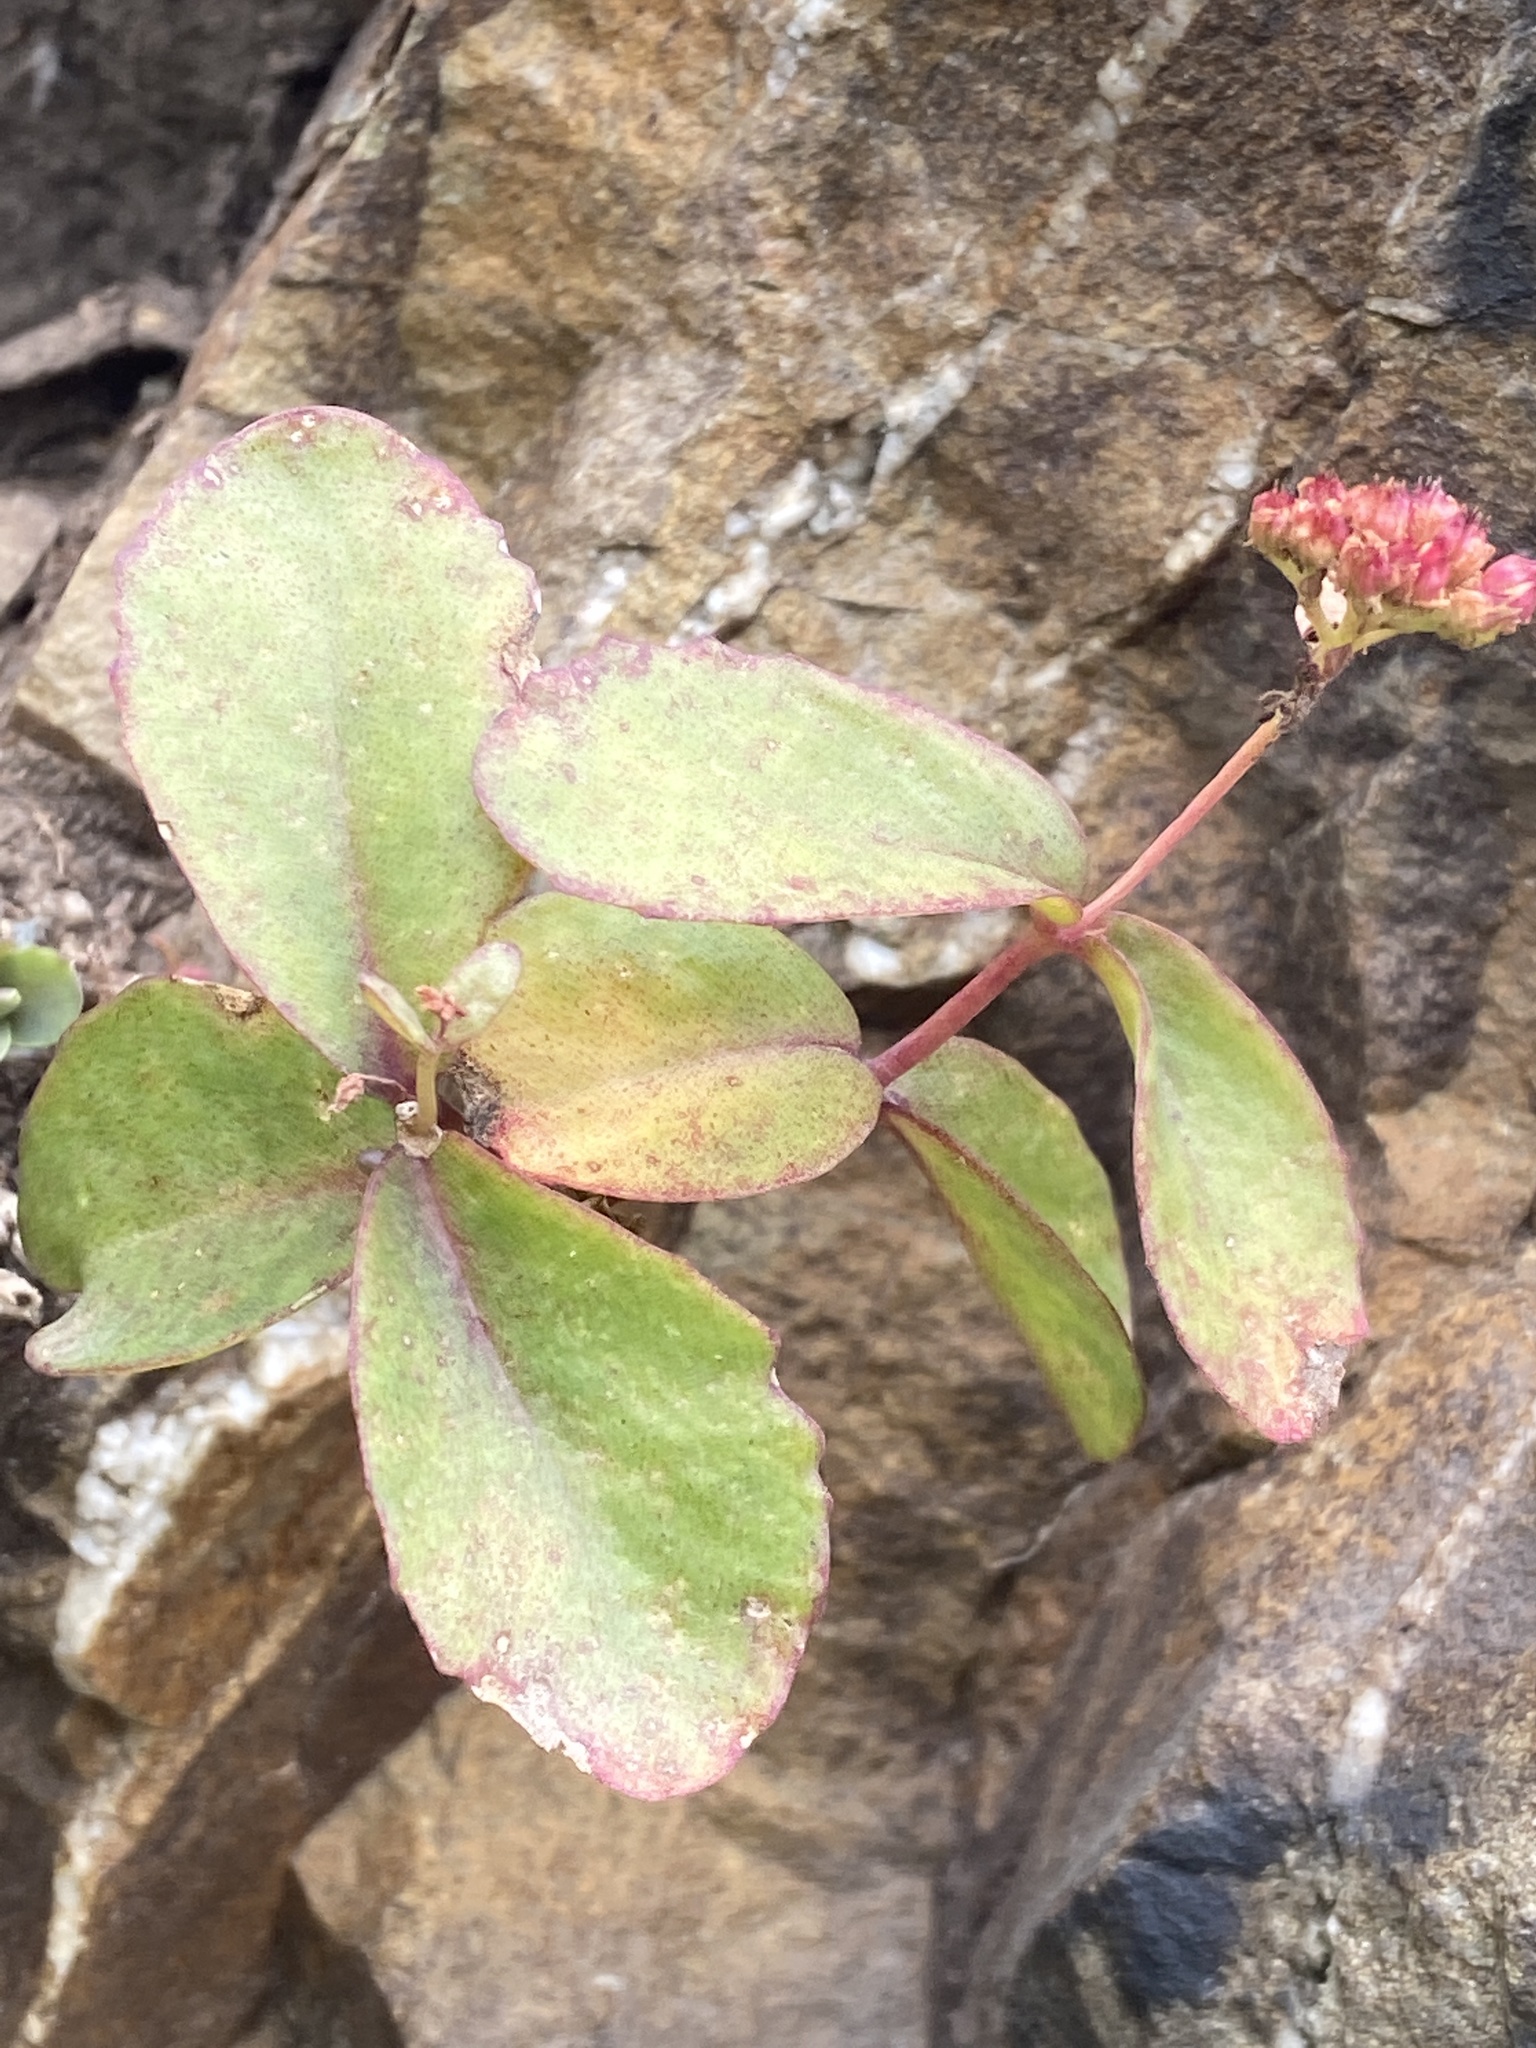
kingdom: Plantae
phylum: Tracheophyta
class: Magnoliopsida
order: Saxifragales
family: Crassulaceae
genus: Hylotelephium
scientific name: Hylotelephium maximum
